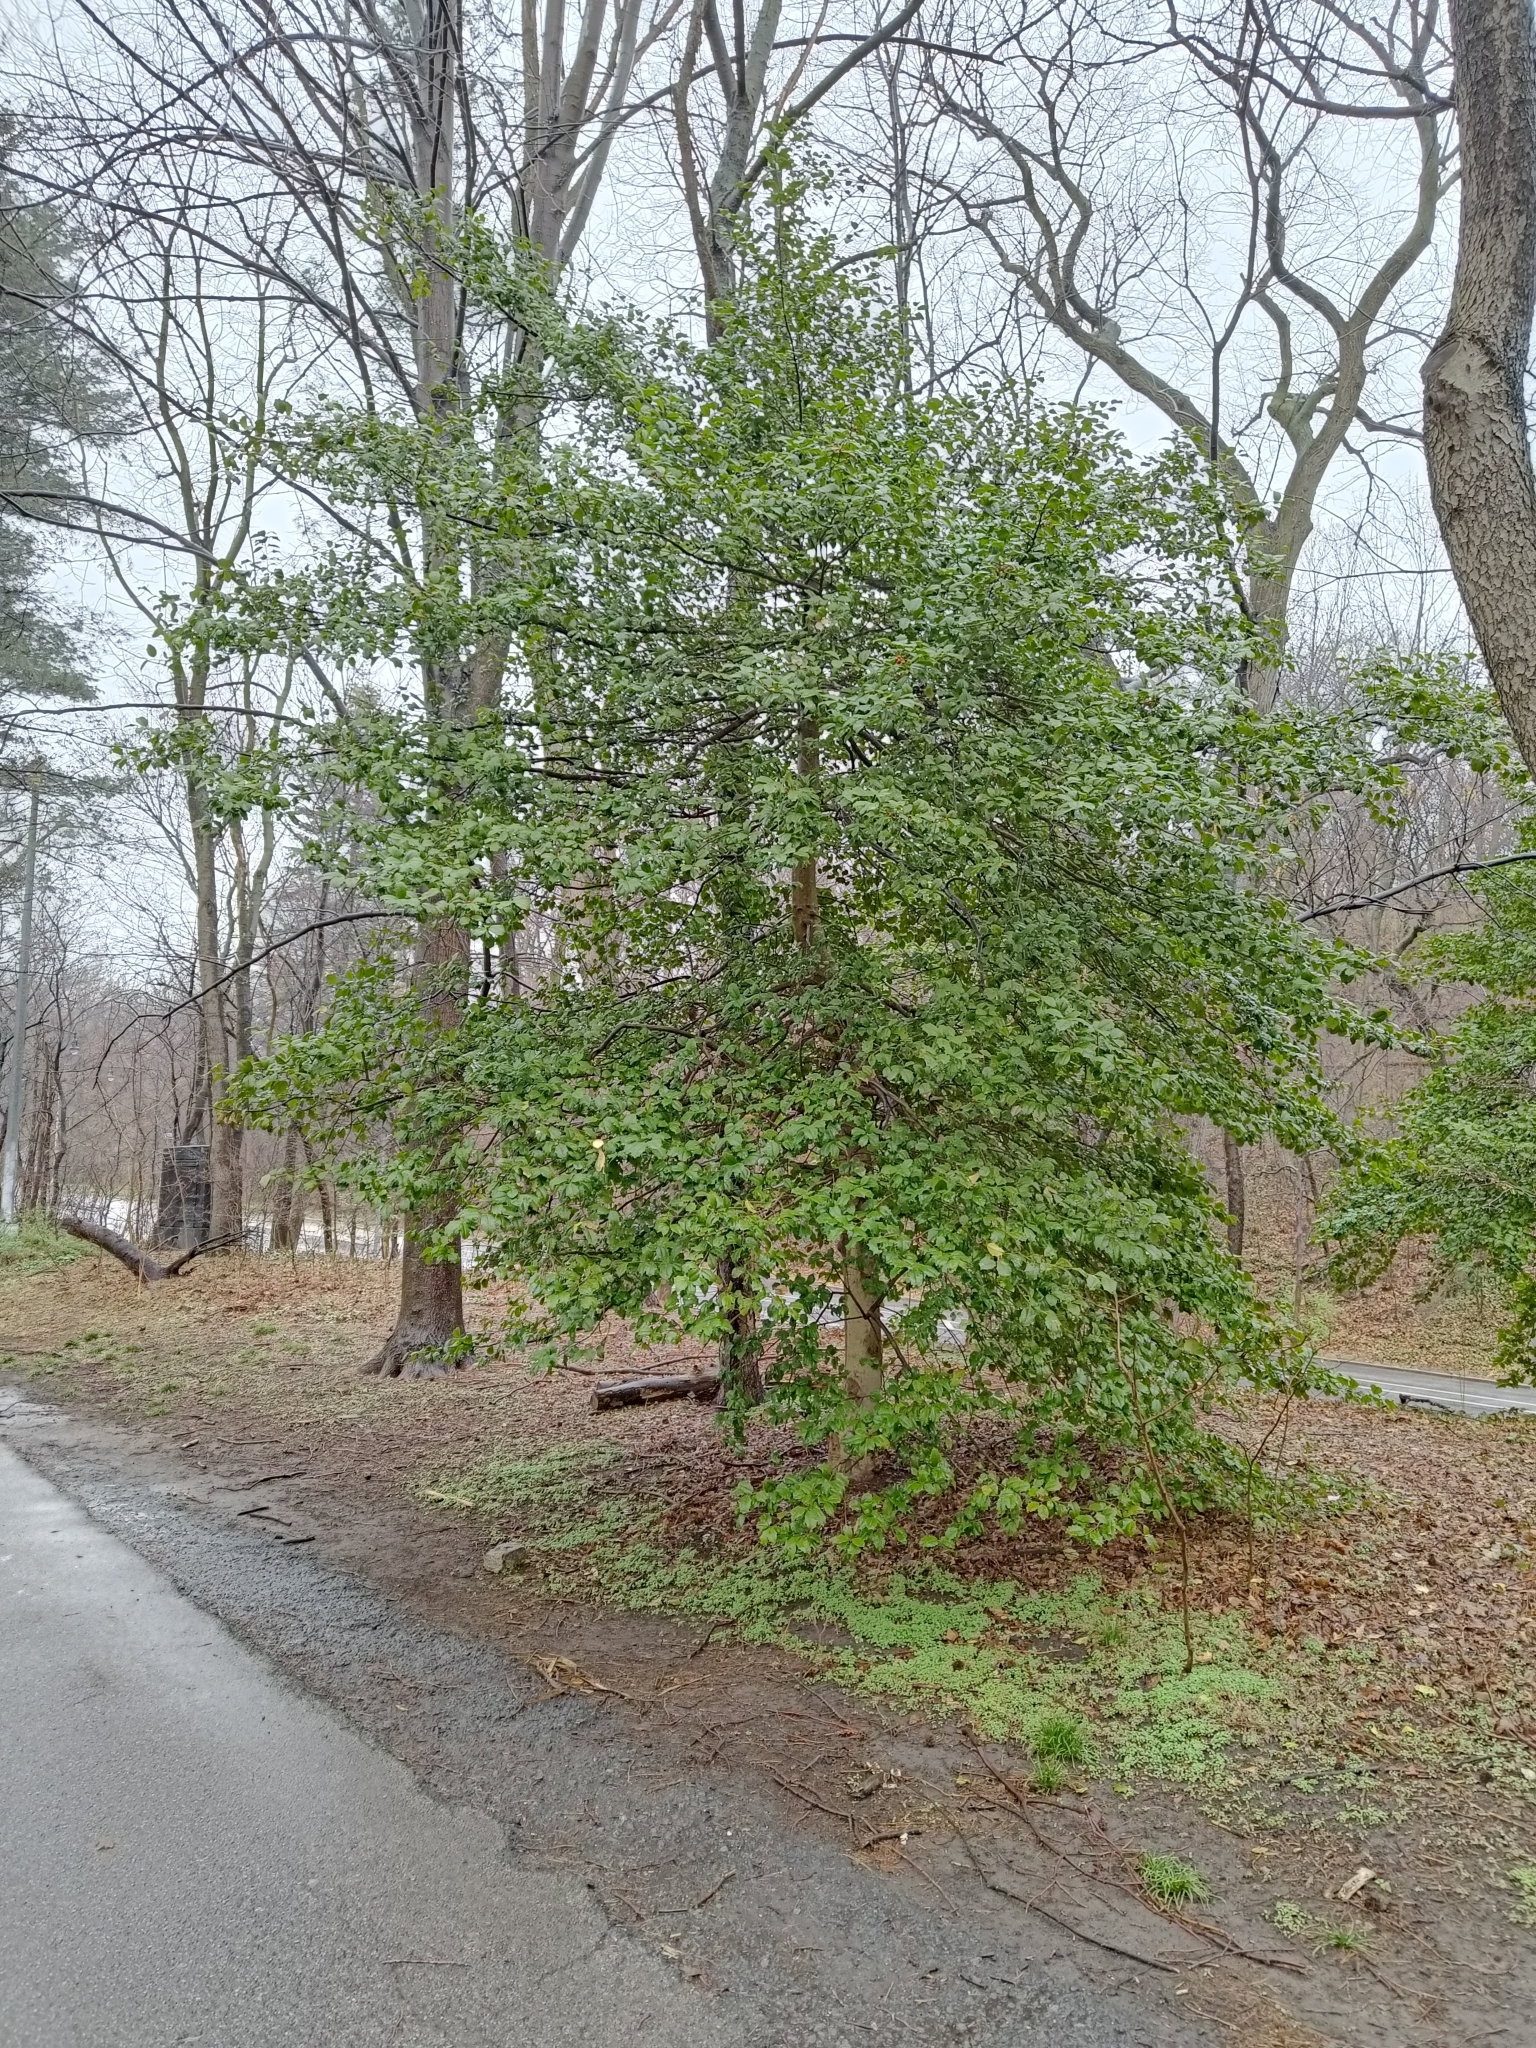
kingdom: Plantae
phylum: Tracheophyta
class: Magnoliopsida
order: Aquifoliales
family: Aquifoliaceae
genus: Ilex
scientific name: Ilex opaca
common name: American holly
